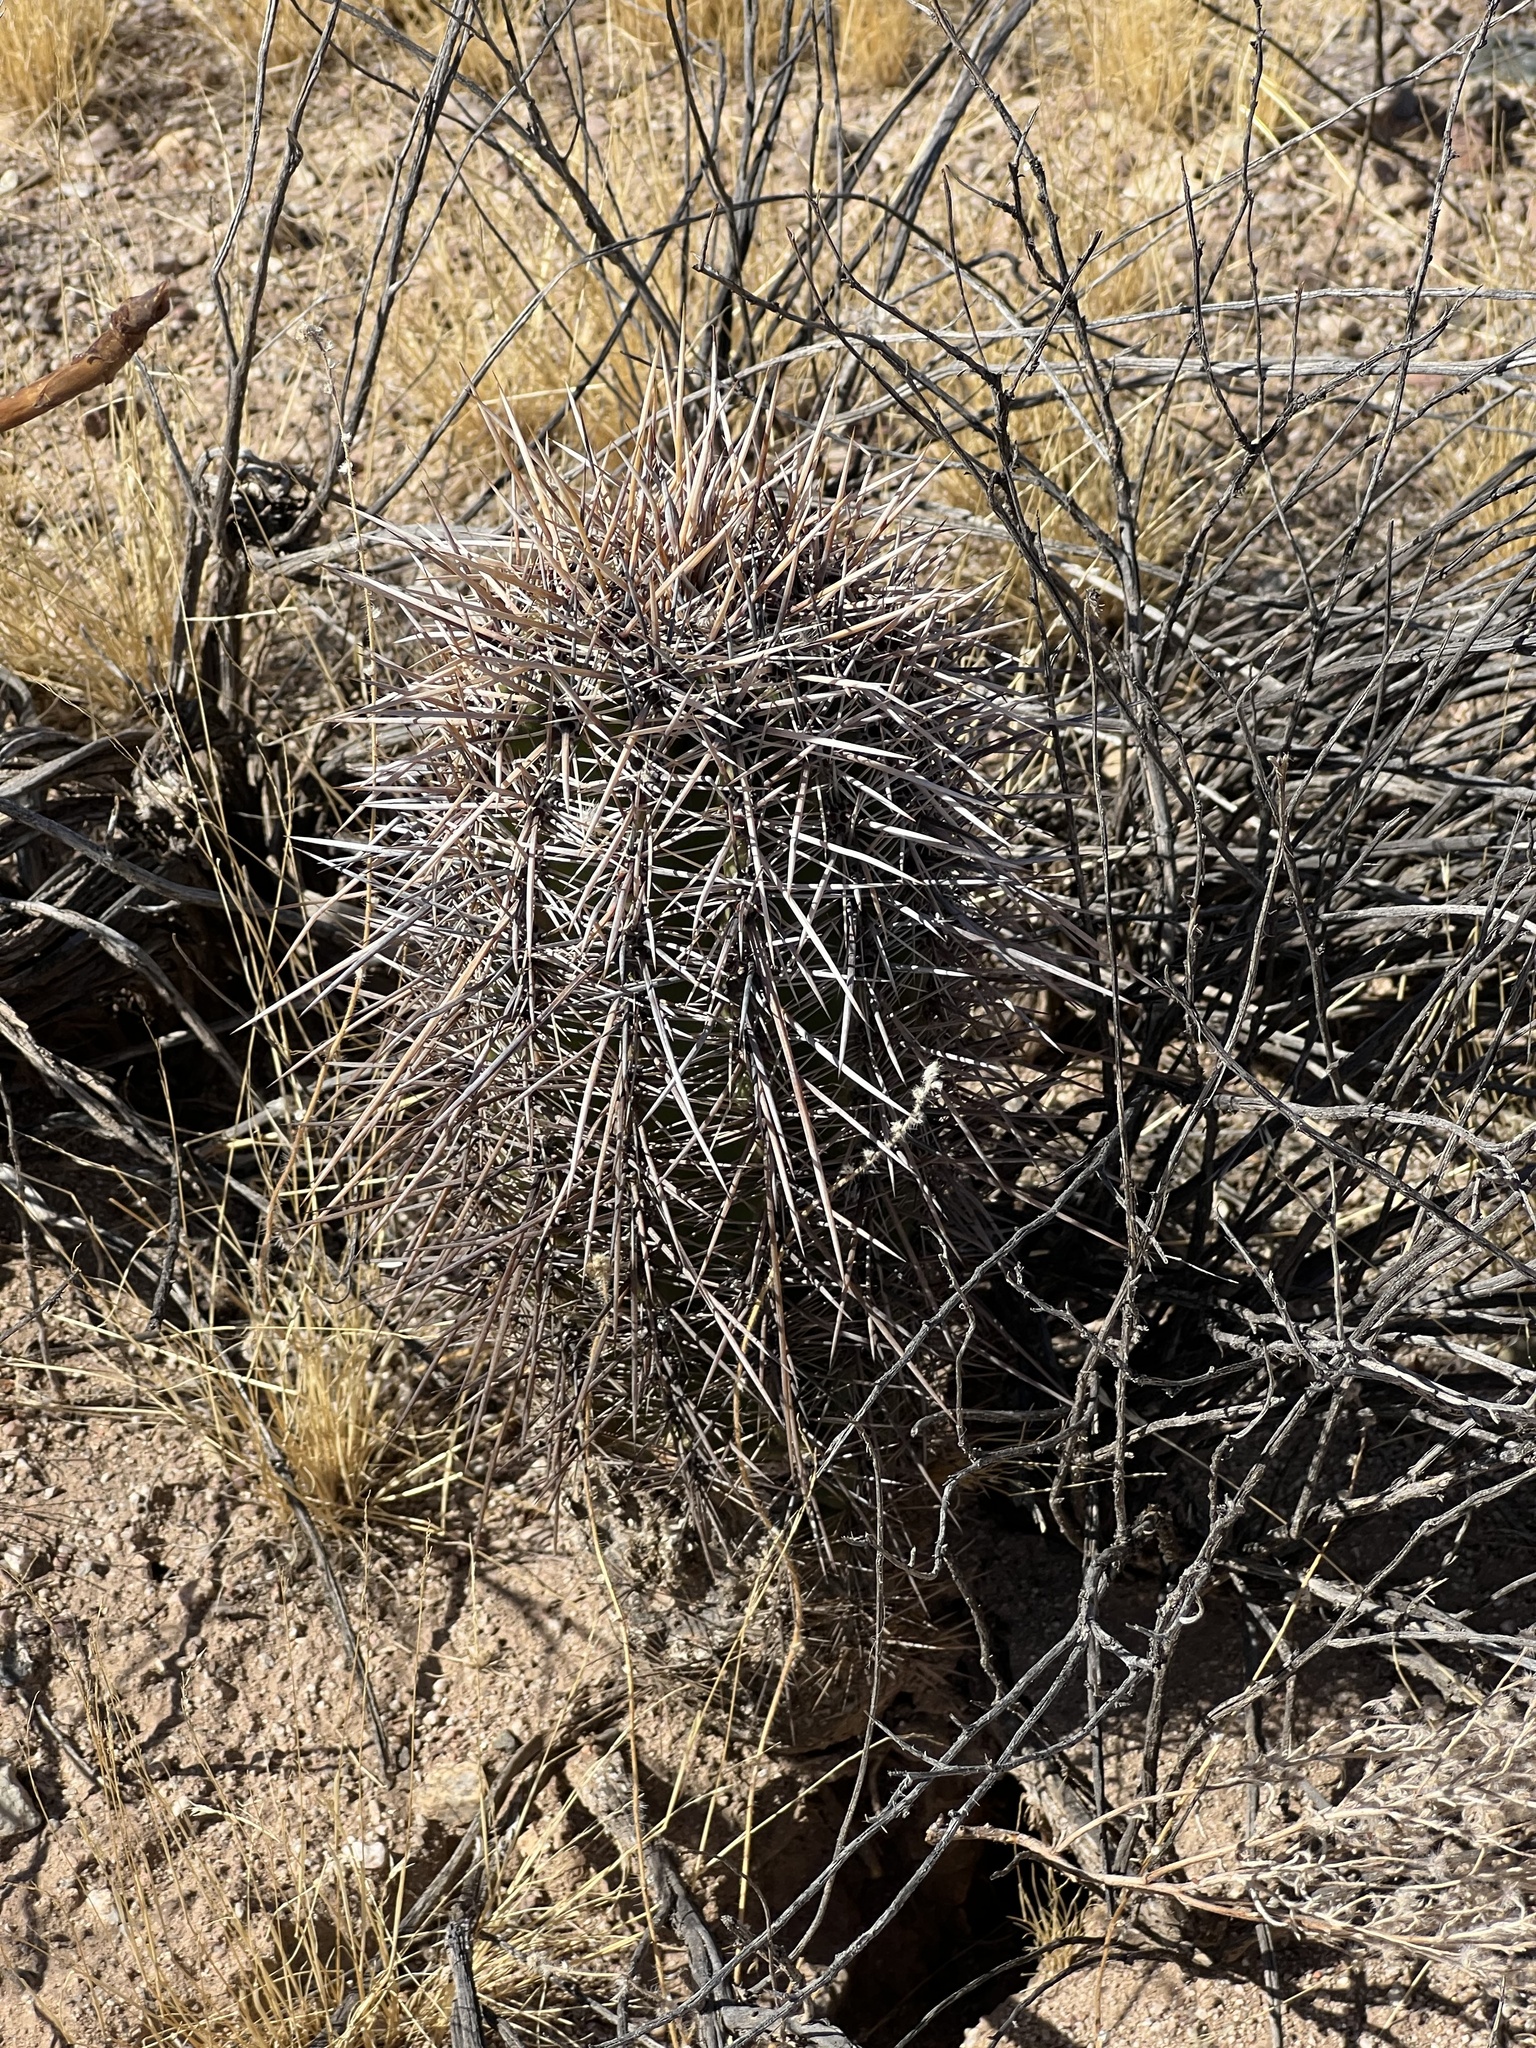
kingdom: Plantae
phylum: Tracheophyta
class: Magnoliopsida
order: Caryophyllales
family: Cactaceae
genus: Carnegiea
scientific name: Carnegiea gigantea
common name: Saguaro
